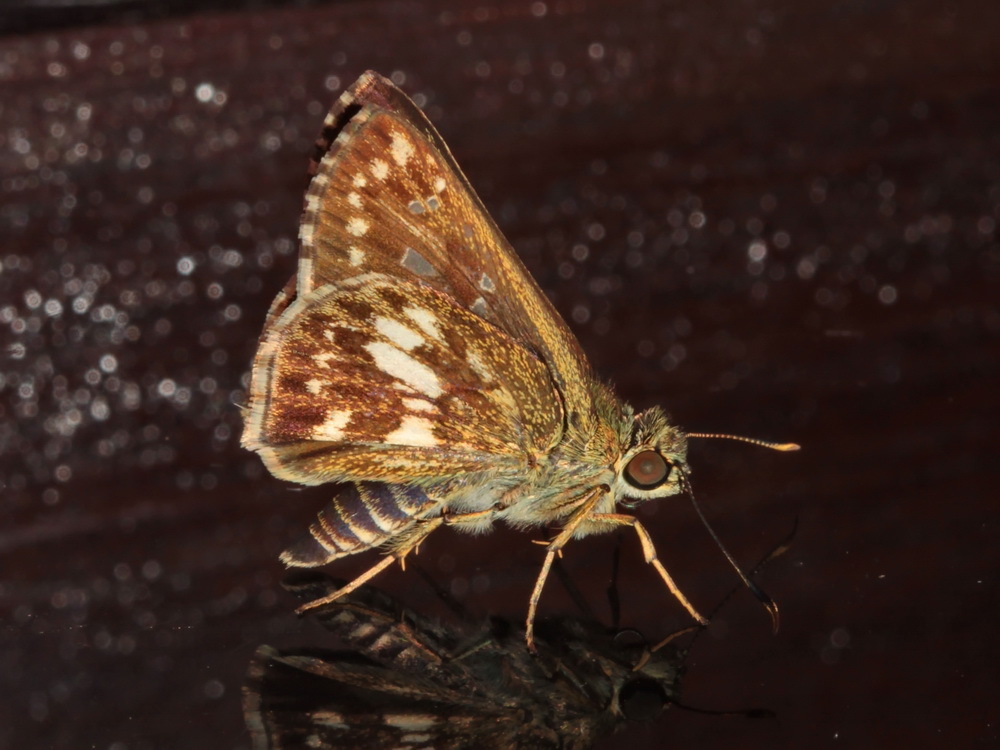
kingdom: Animalia
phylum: Arthropoda
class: Insecta
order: Lepidoptera
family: Hesperiidae
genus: Halpe
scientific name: Halpe porus
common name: Moore's ace
